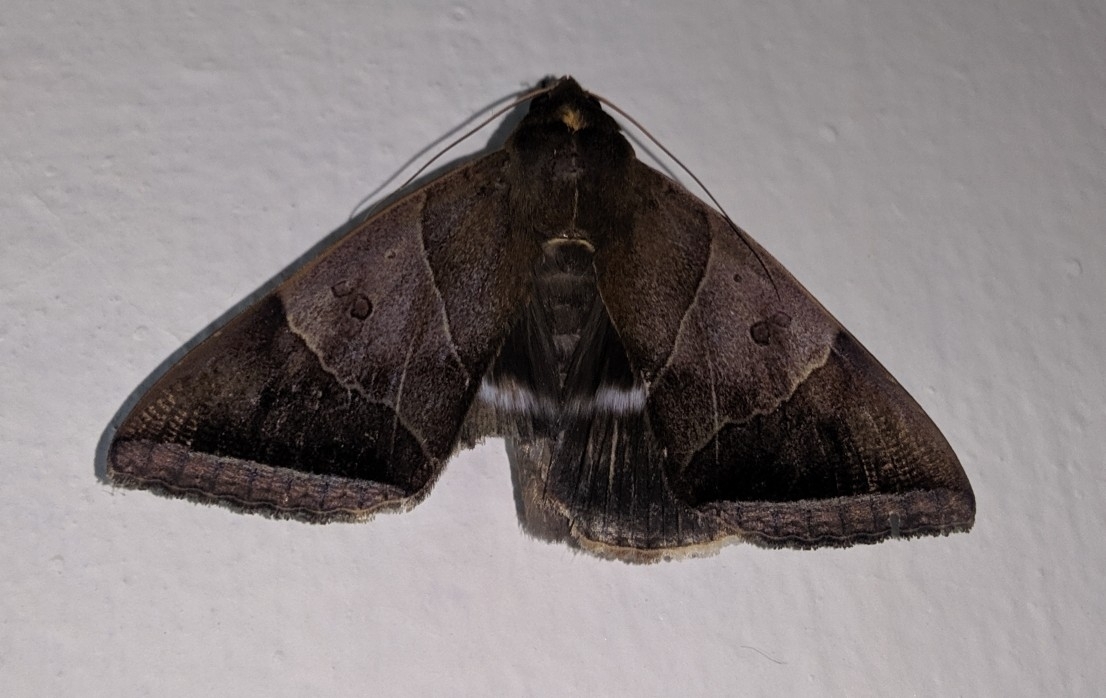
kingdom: Animalia
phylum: Arthropoda
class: Insecta
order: Lepidoptera
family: Erebidae
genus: Artena
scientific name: Artena dotata
